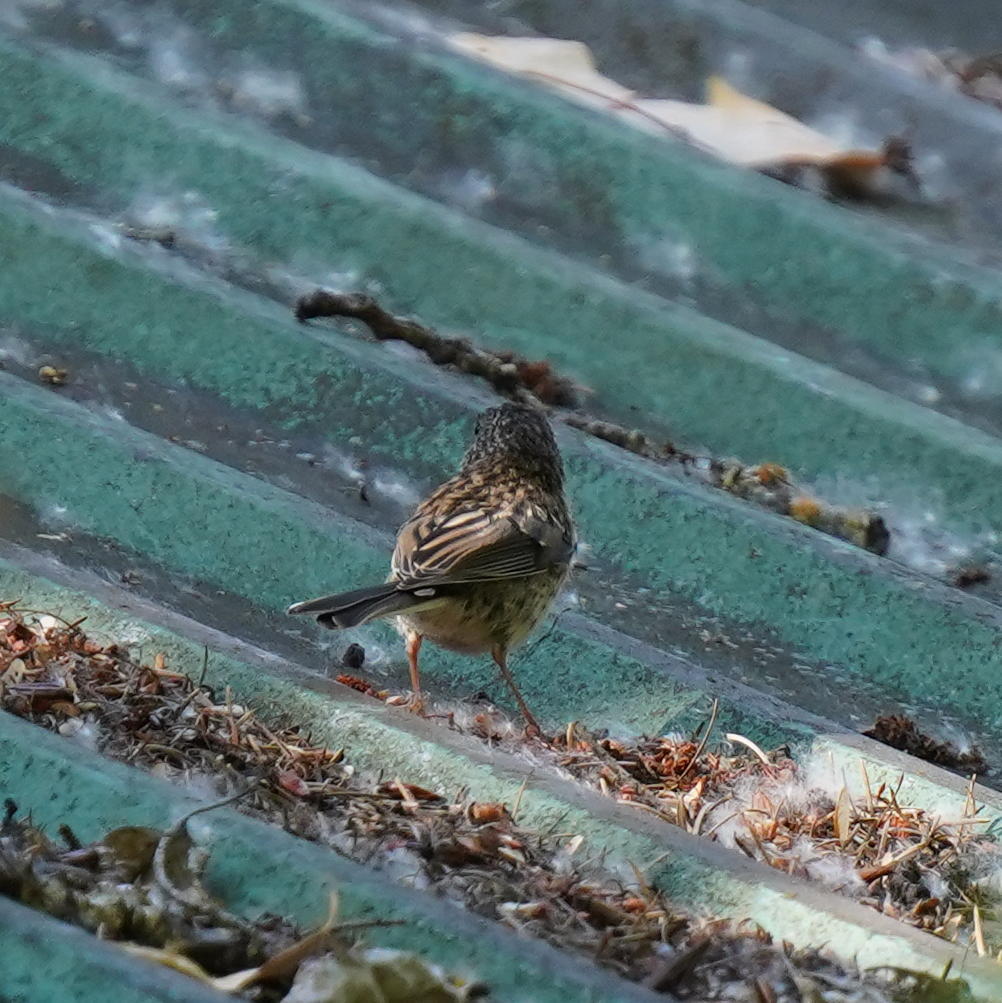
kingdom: Animalia
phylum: Chordata
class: Aves
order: Passeriformes
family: Passerellidae
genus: Junco
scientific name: Junco hyemalis
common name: Dark-eyed junco
